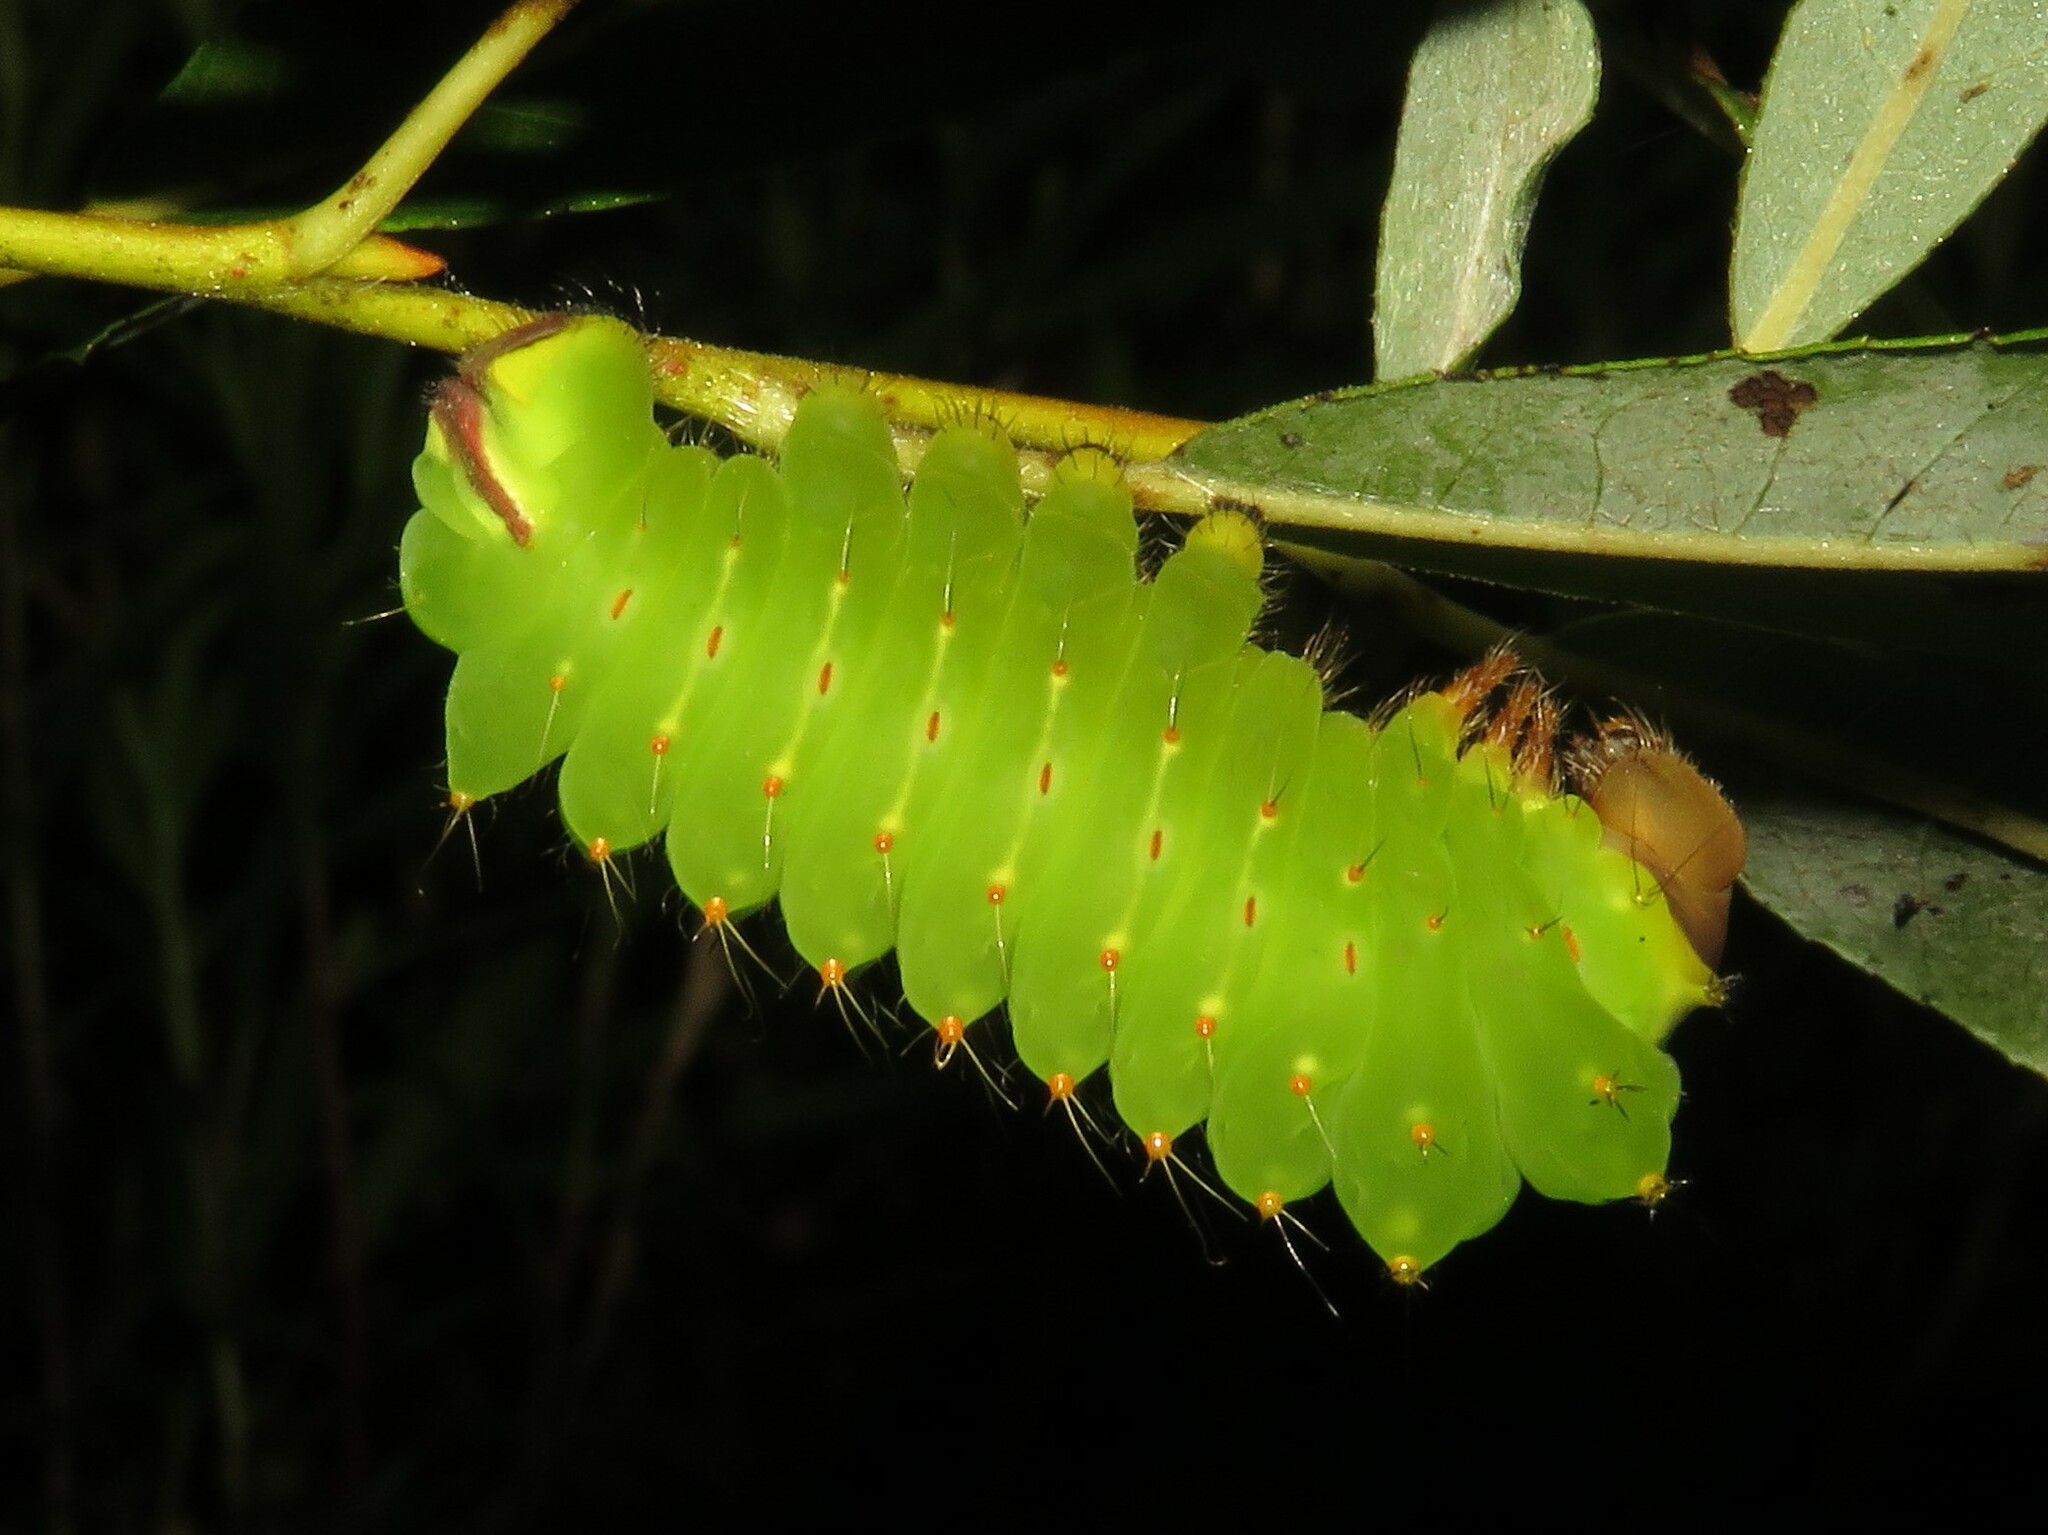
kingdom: Animalia
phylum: Arthropoda
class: Insecta
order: Lepidoptera
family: Saturniidae
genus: Antheraea
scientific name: Antheraea polyphemus
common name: Polyphemus moth
